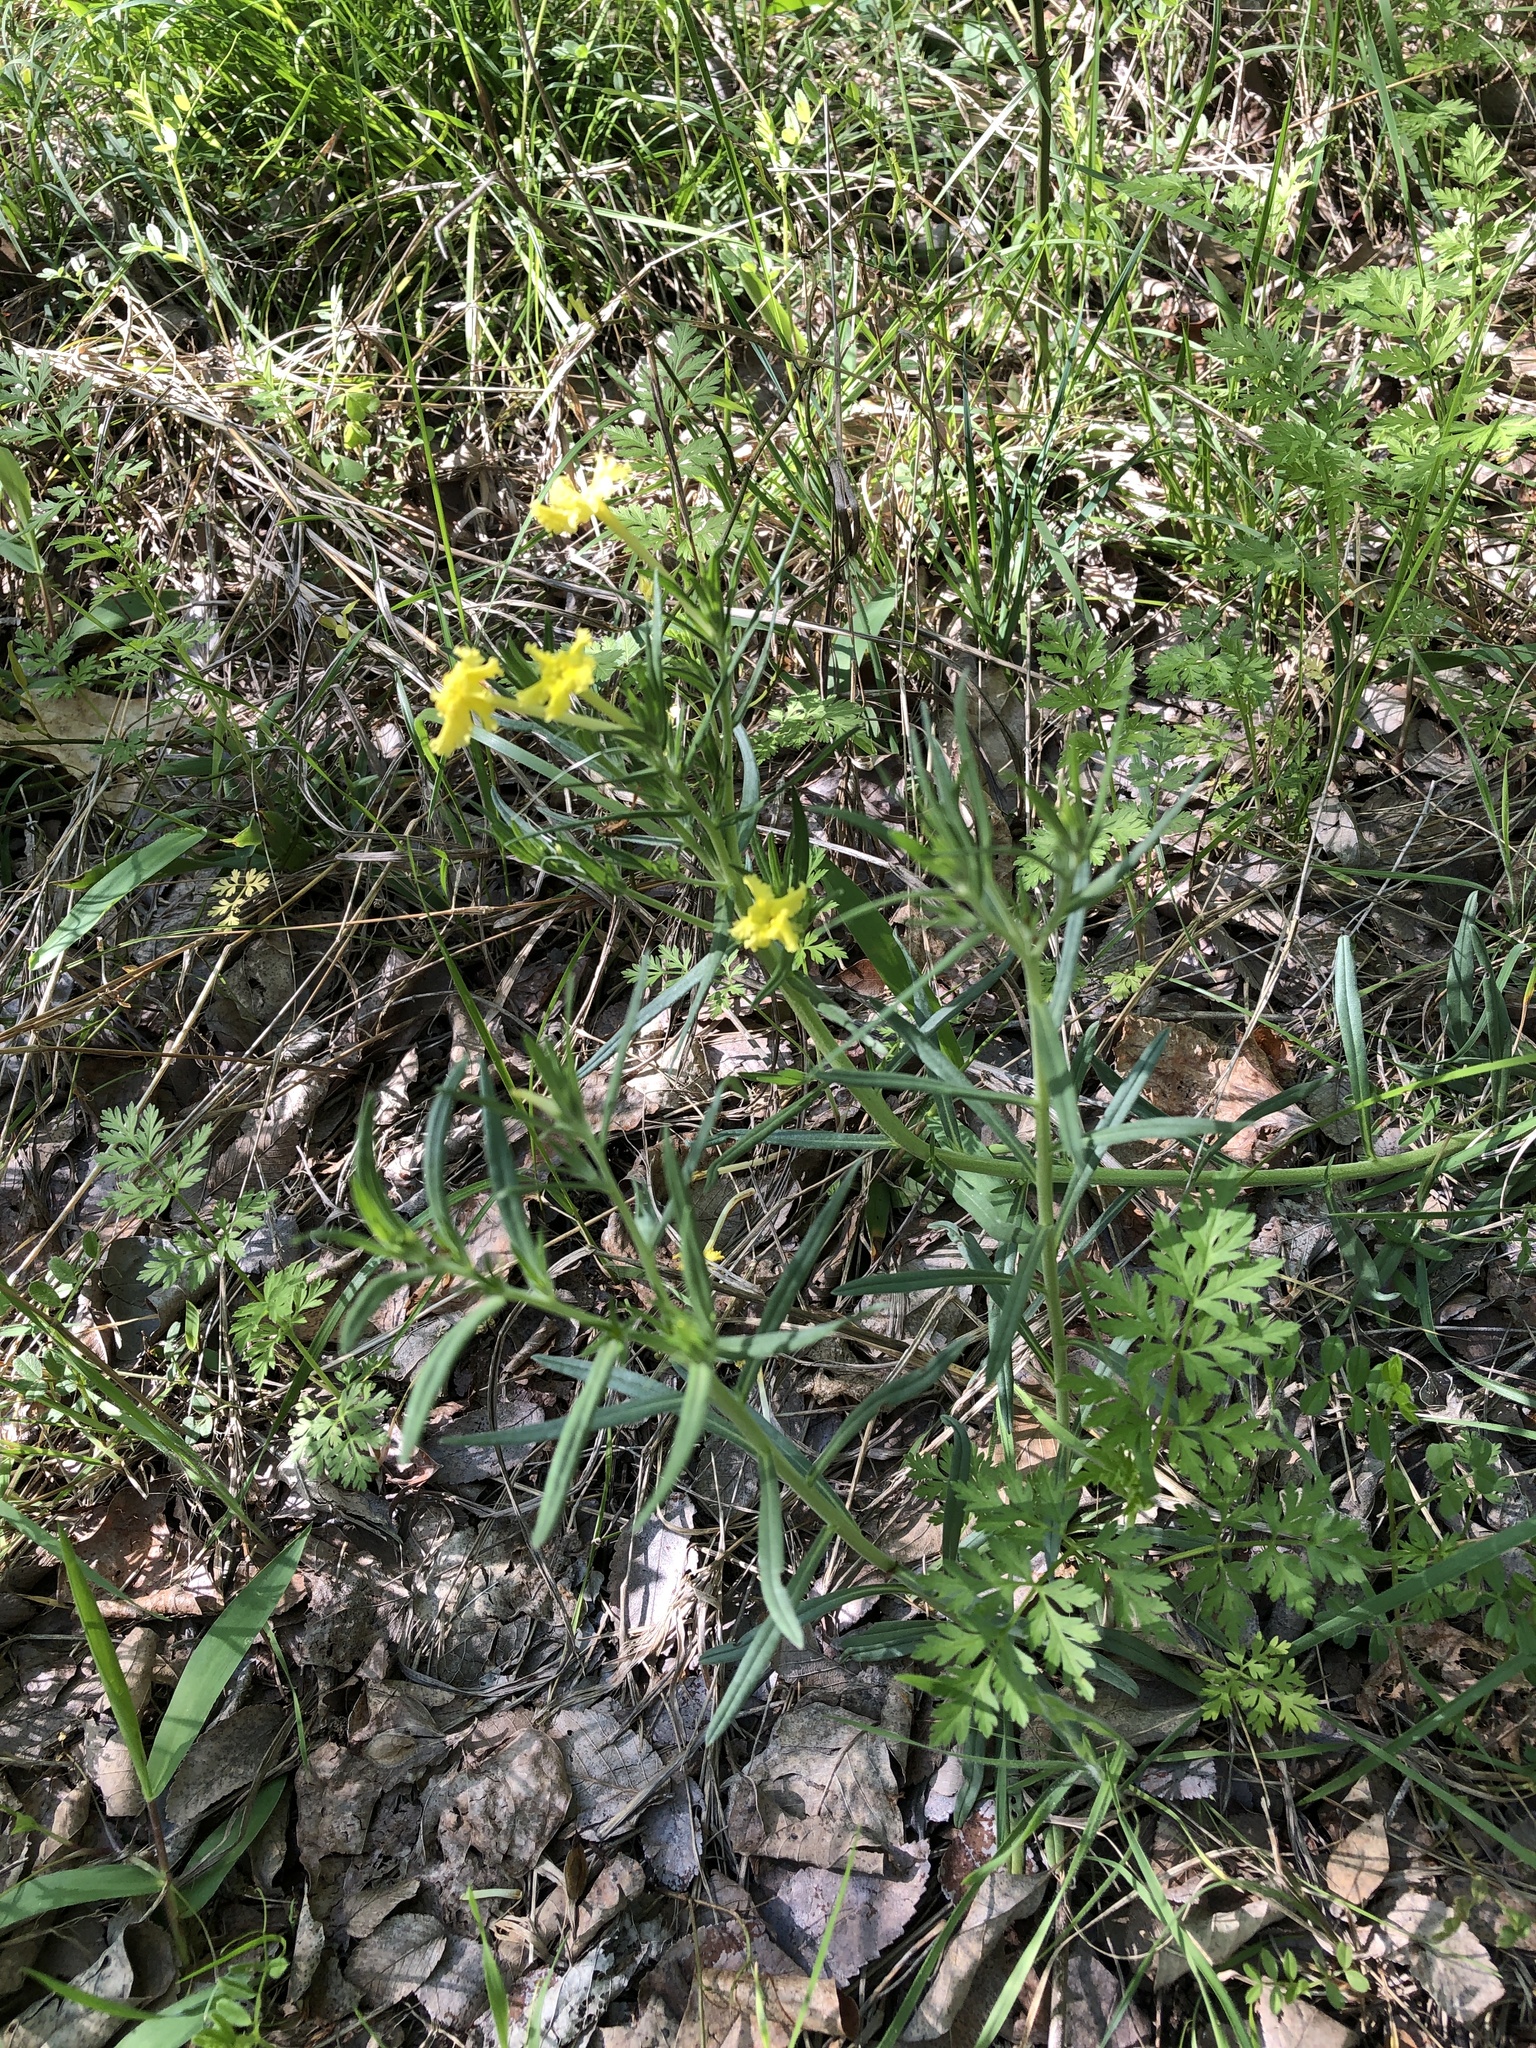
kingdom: Plantae
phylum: Tracheophyta
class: Magnoliopsida
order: Boraginales
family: Boraginaceae
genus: Lithospermum
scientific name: Lithospermum incisum
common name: Fringed gromwell
